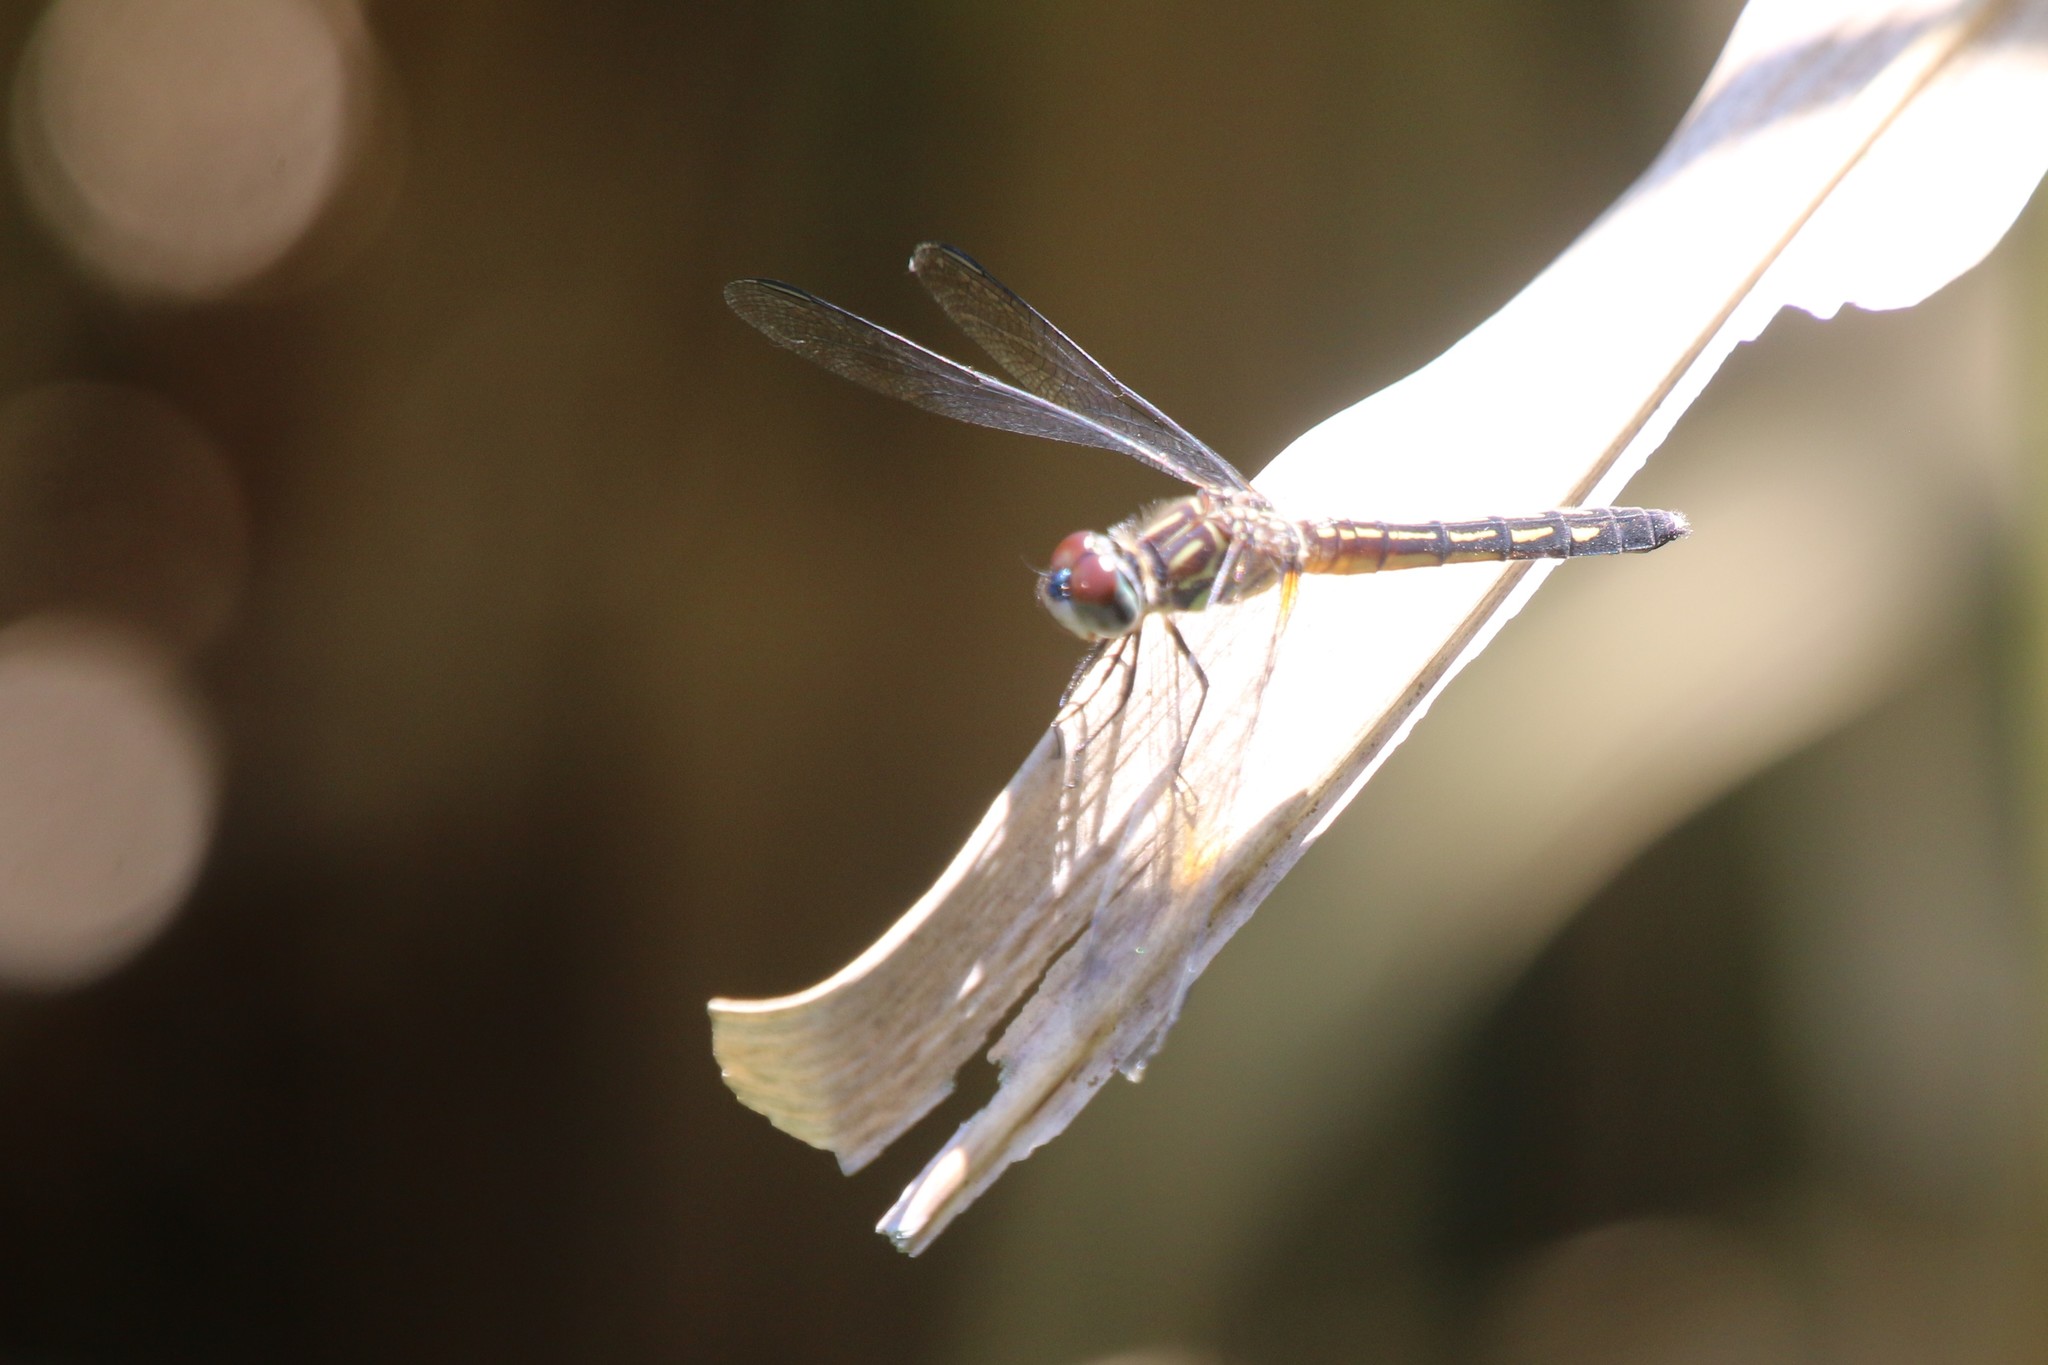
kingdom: Animalia
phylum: Arthropoda
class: Insecta
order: Odonata
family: Libellulidae
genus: Pachydiplax
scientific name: Pachydiplax longipennis
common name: Blue dasher
